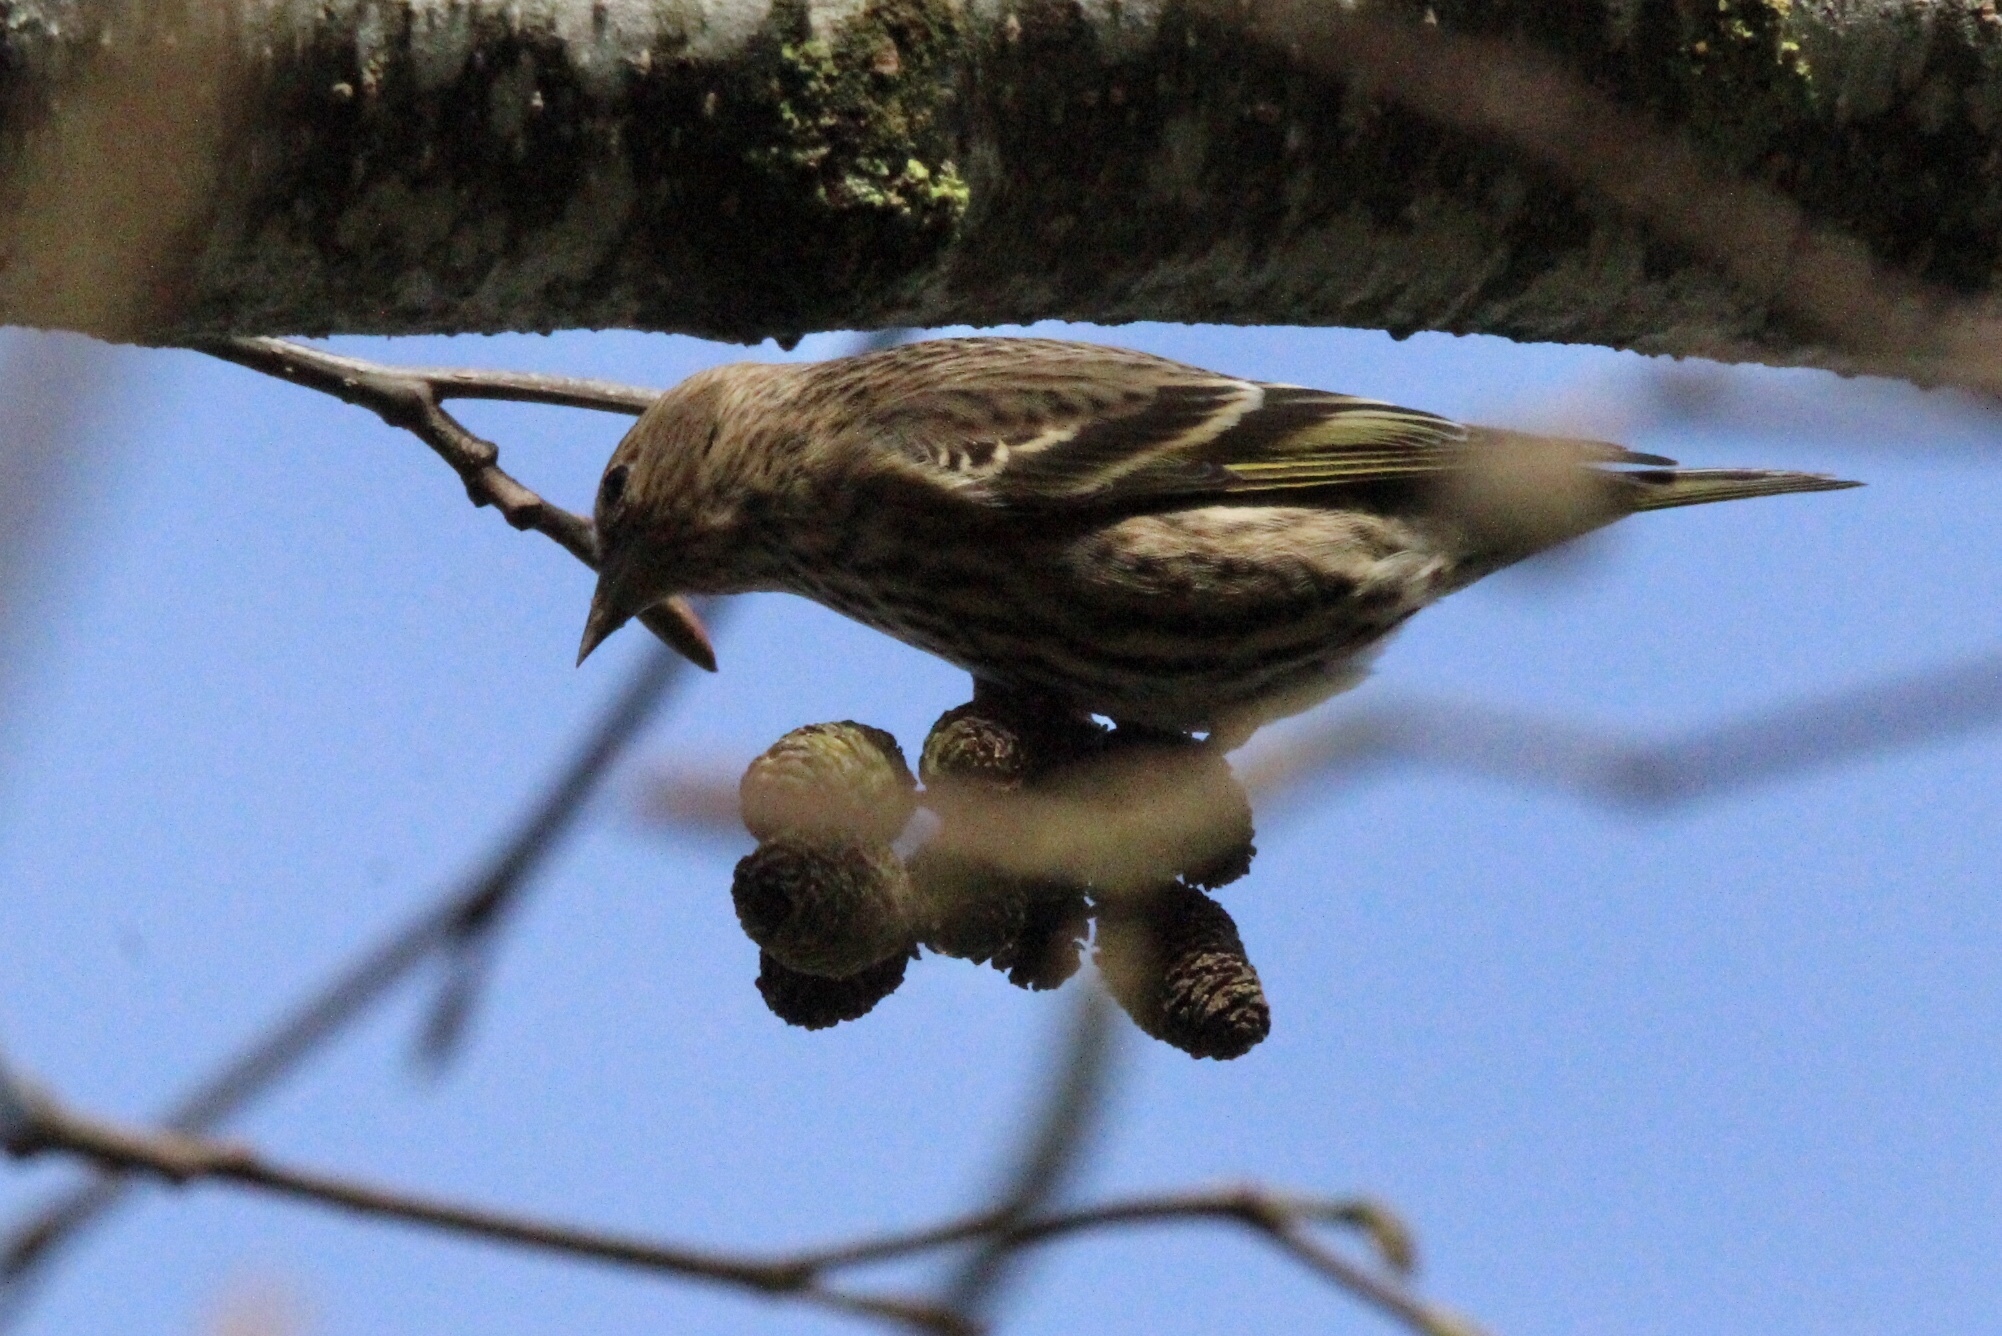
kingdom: Animalia
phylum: Chordata
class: Aves
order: Passeriformes
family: Fringillidae
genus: Spinus
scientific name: Spinus pinus
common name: Pine siskin
